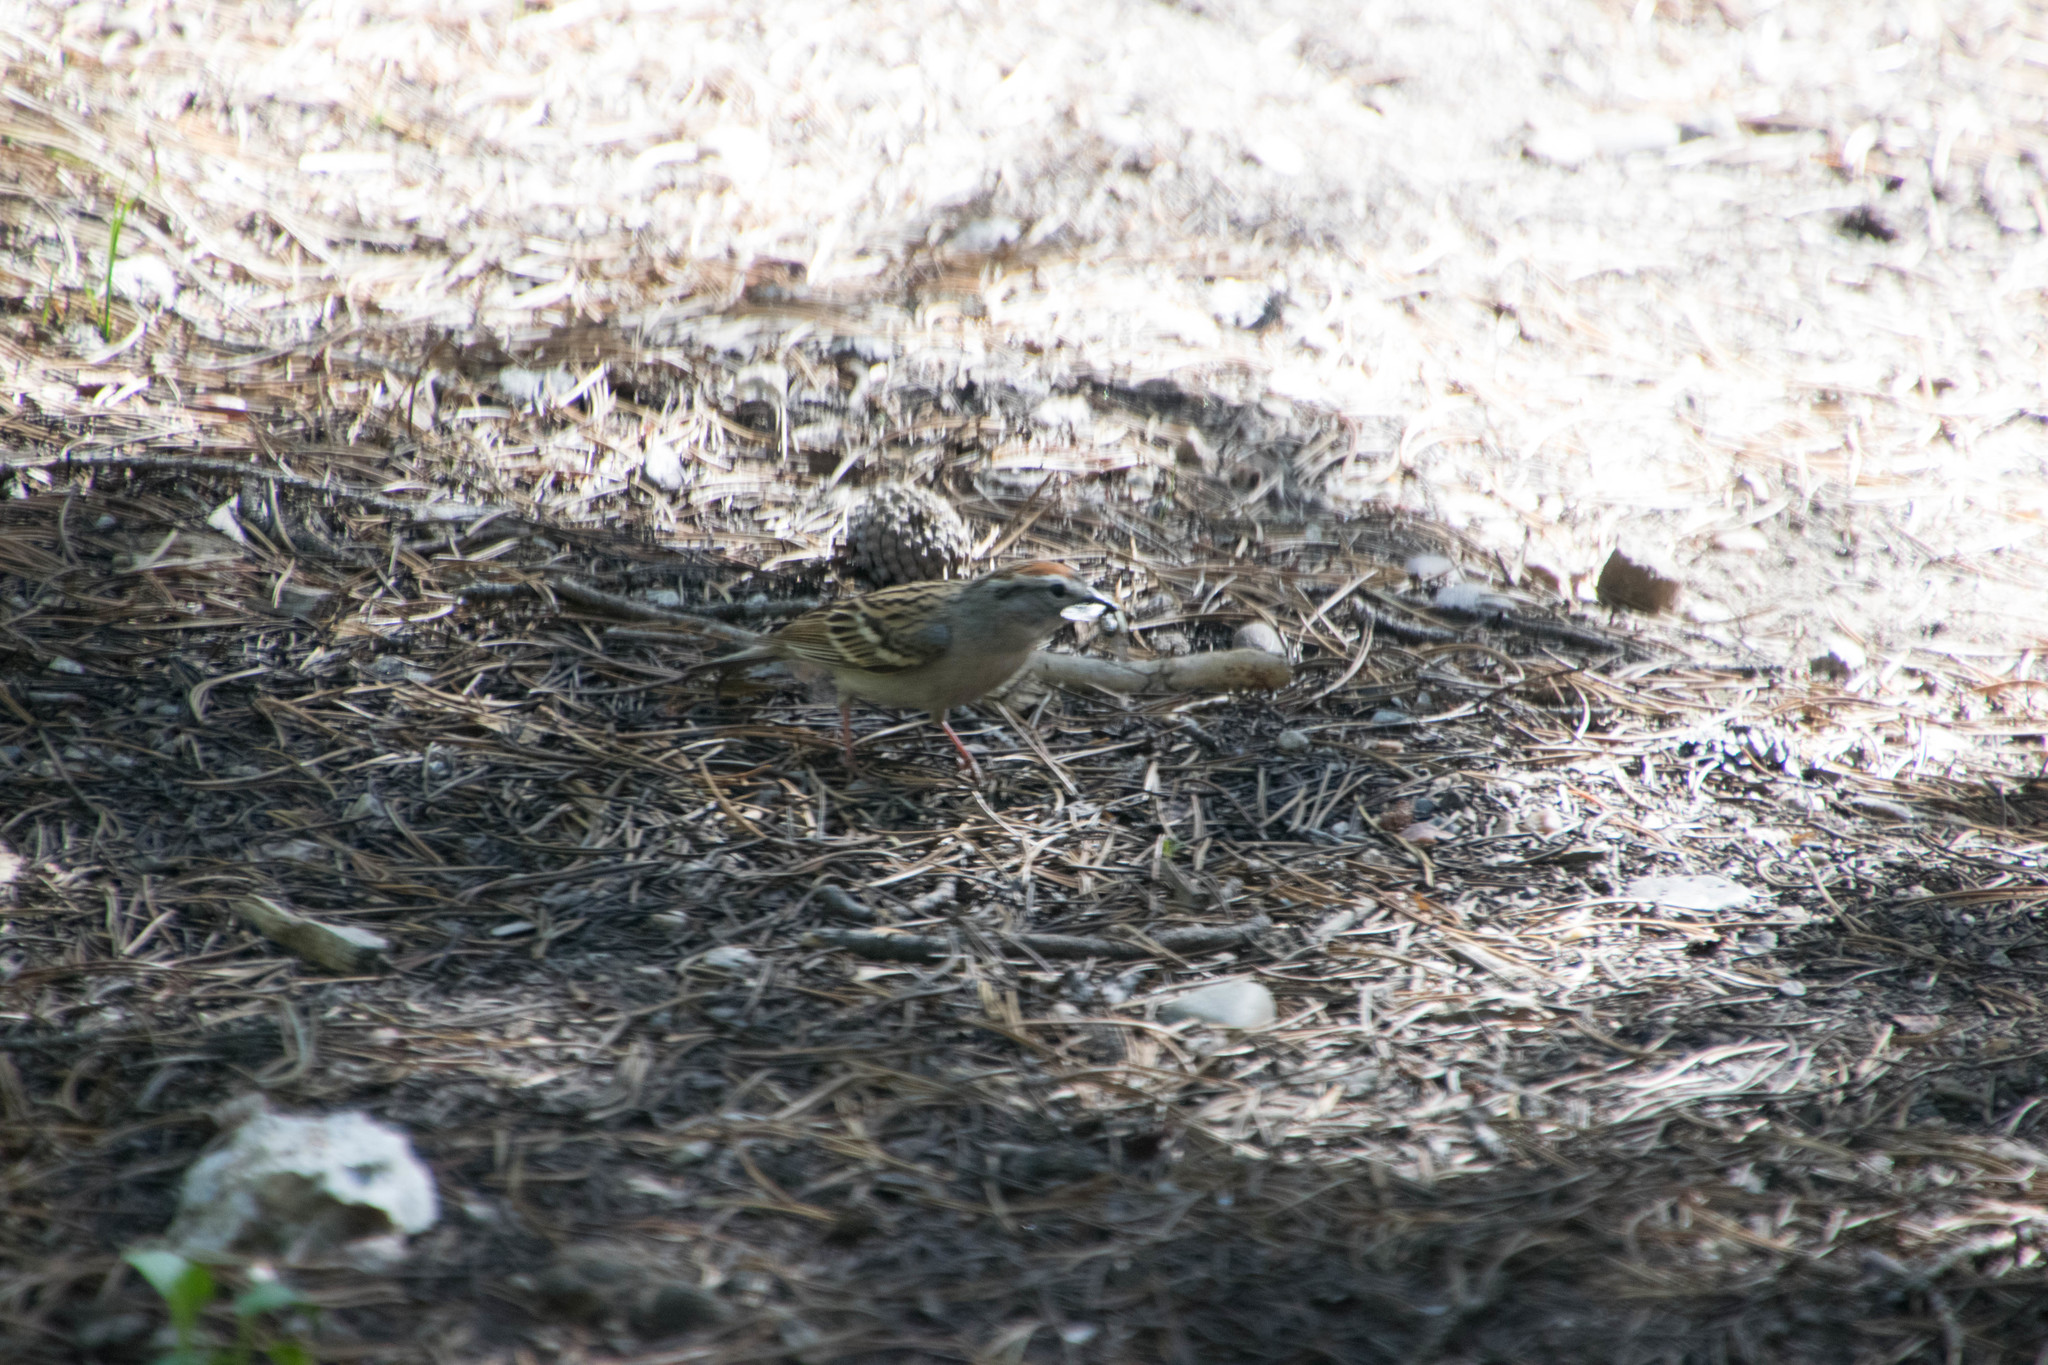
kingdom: Animalia
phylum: Chordata
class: Aves
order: Passeriformes
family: Passerellidae
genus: Spizella
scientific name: Spizella passerina
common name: Chipping sparrow
